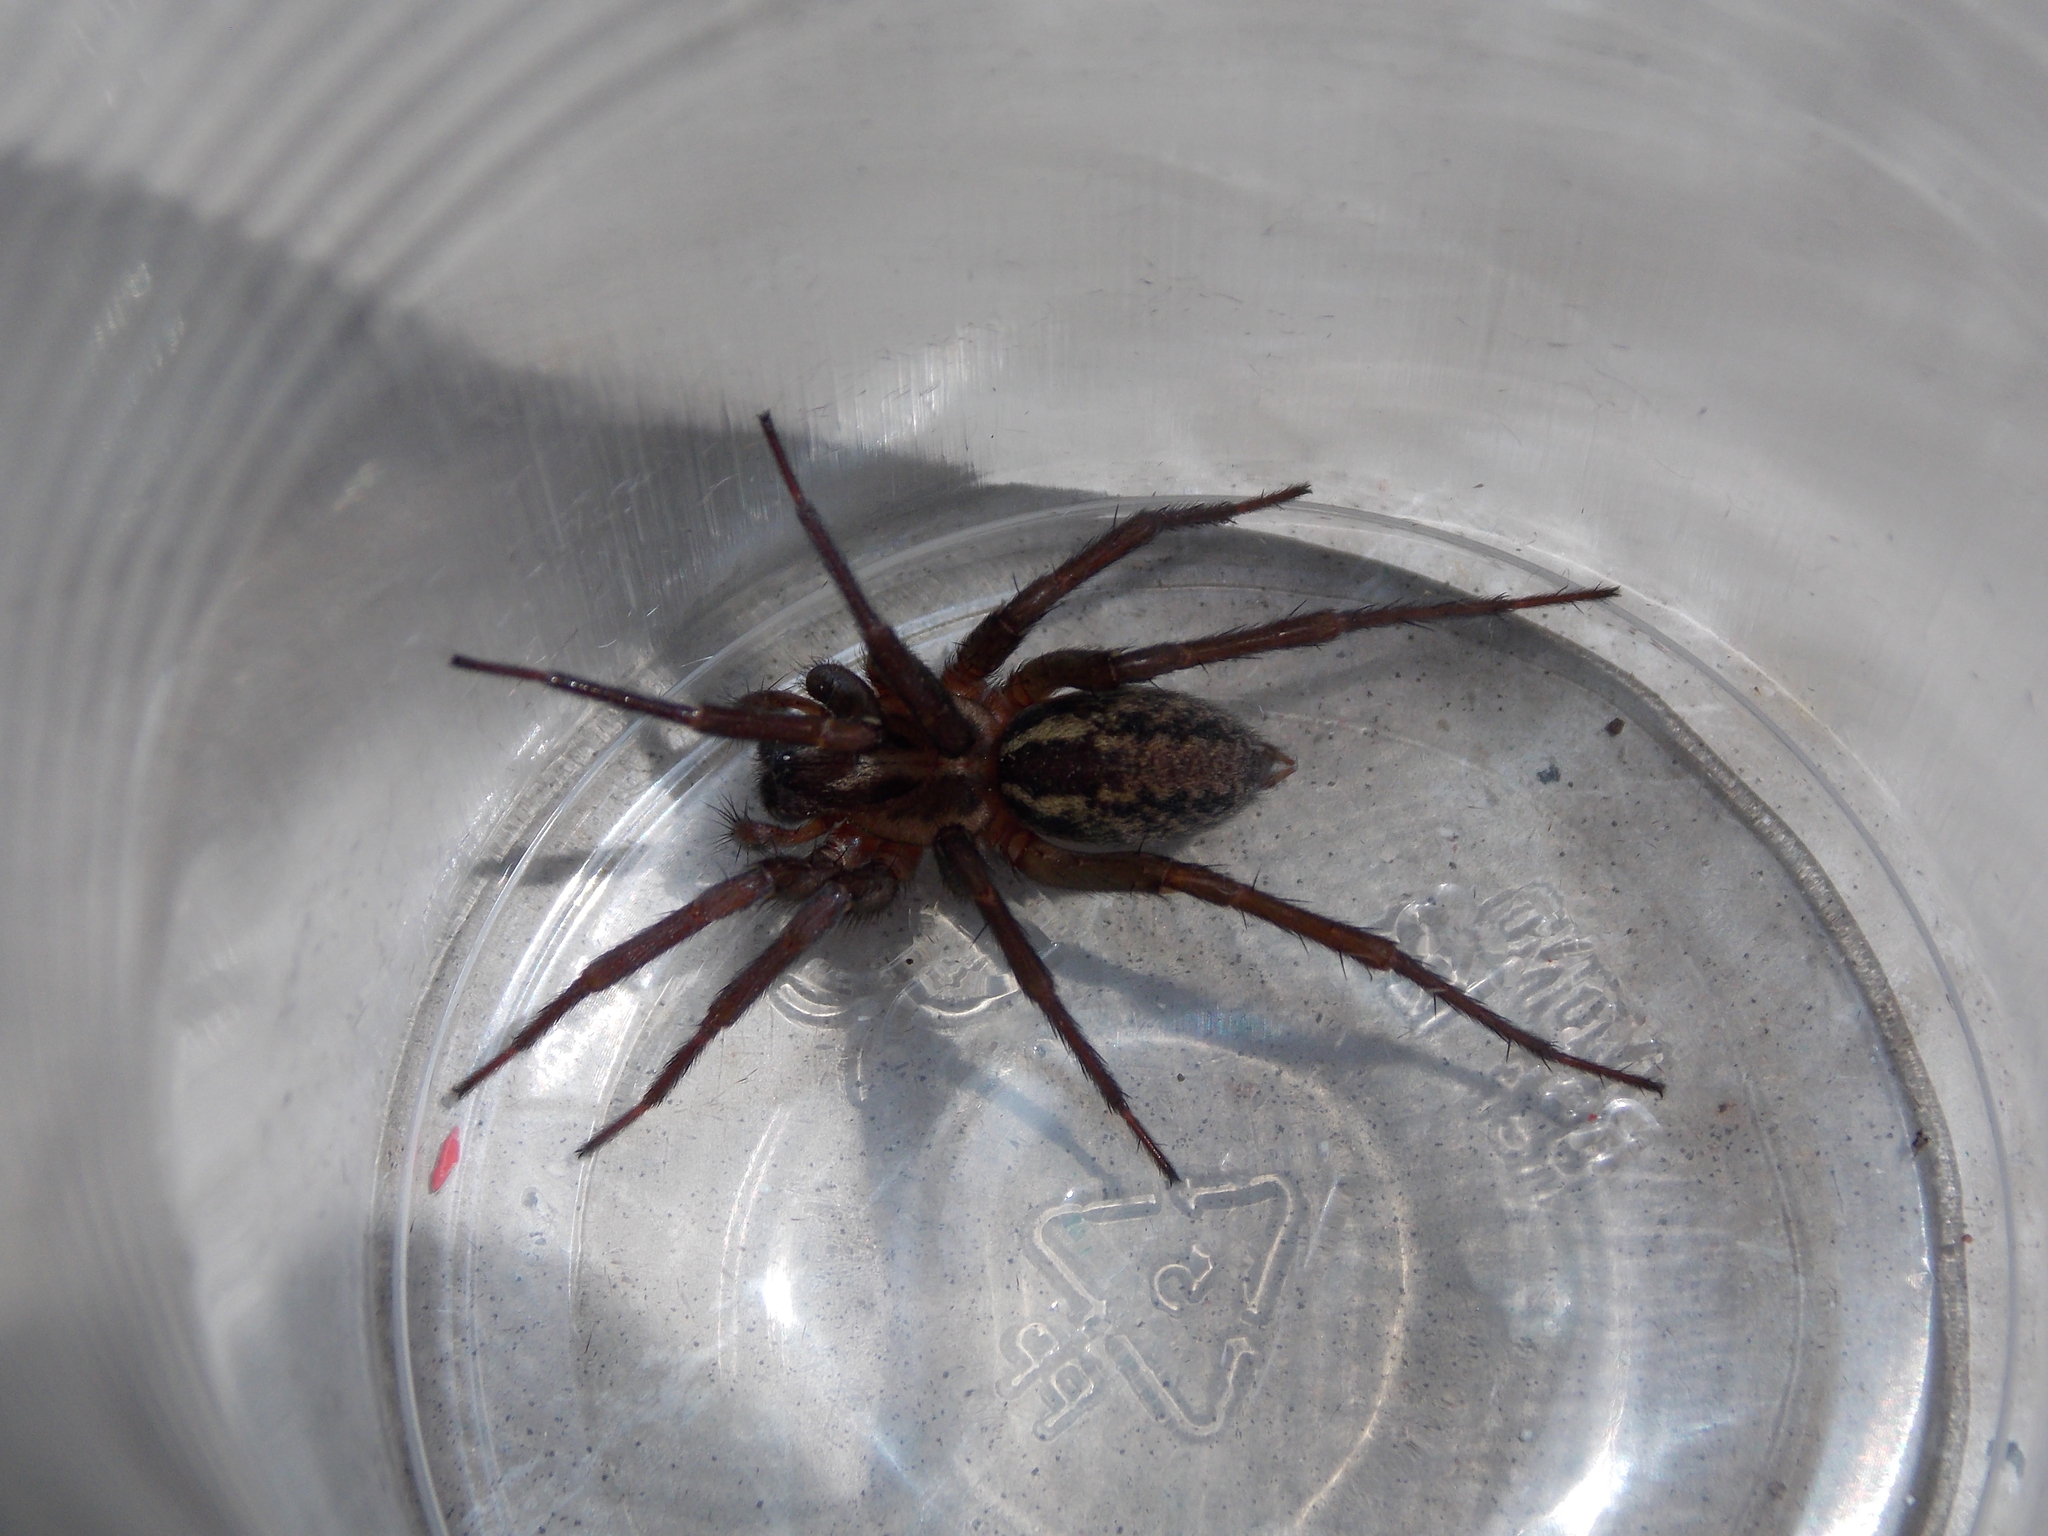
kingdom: Animalia
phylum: Arthropoda
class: Arachnida
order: Araneae
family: Agelenidae
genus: Aterigena
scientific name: Aterigena ligurica
